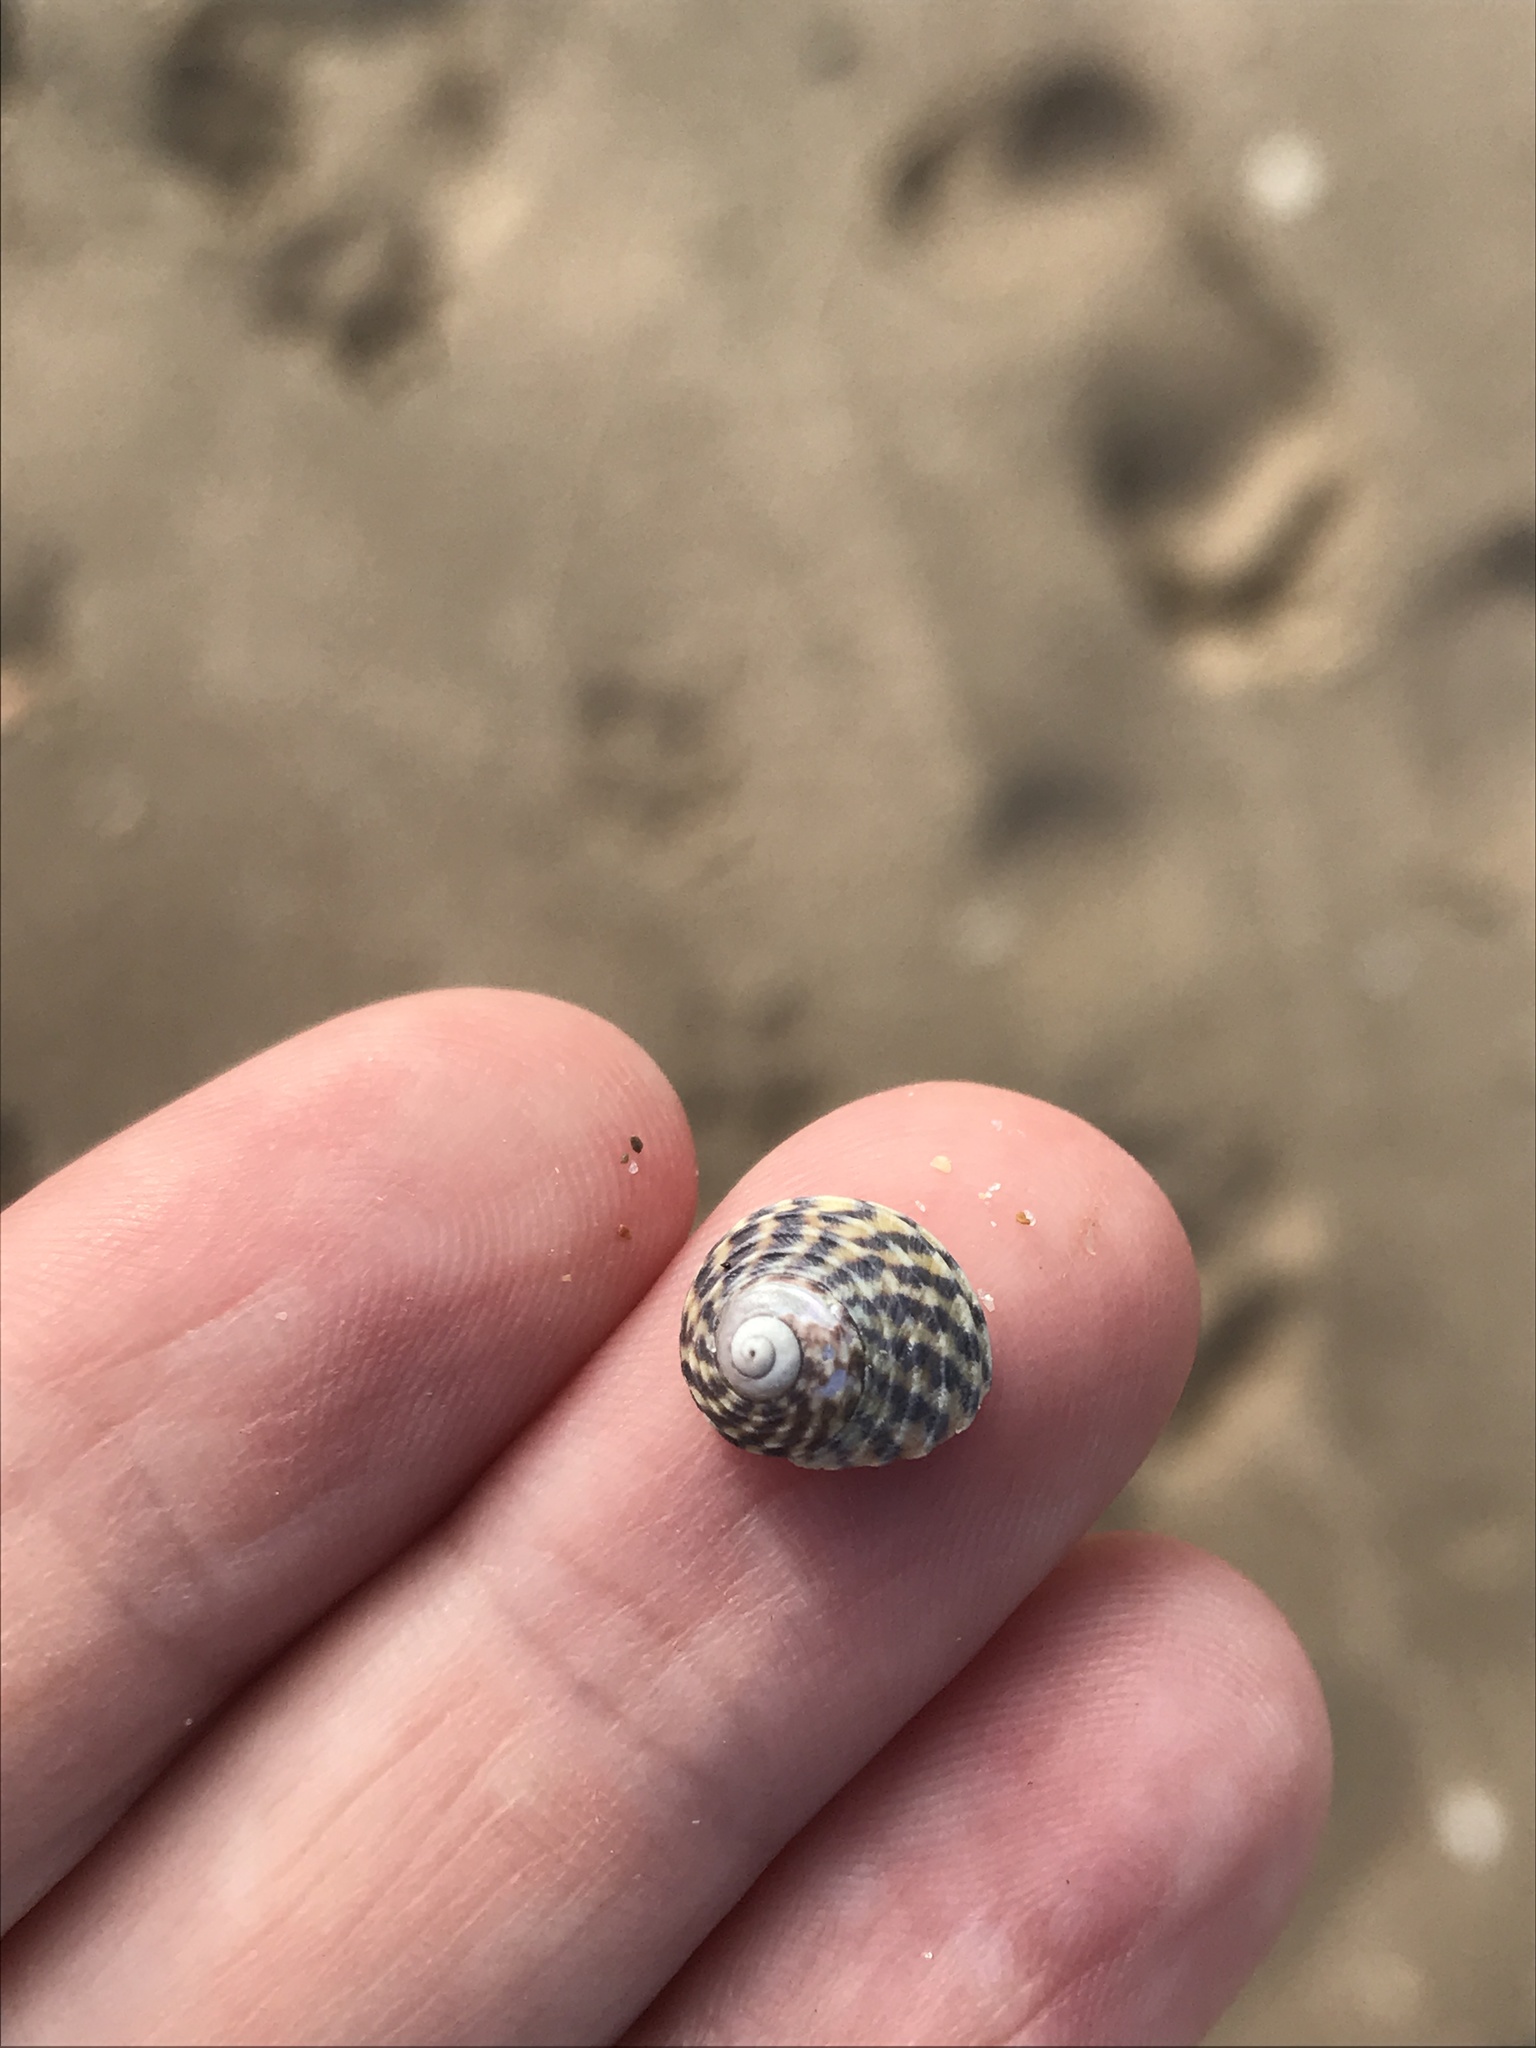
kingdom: Animalia
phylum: Mollusca
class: Gastropoda
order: Trochida
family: Trochidae
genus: Diloma
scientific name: Diloma subrostratum
